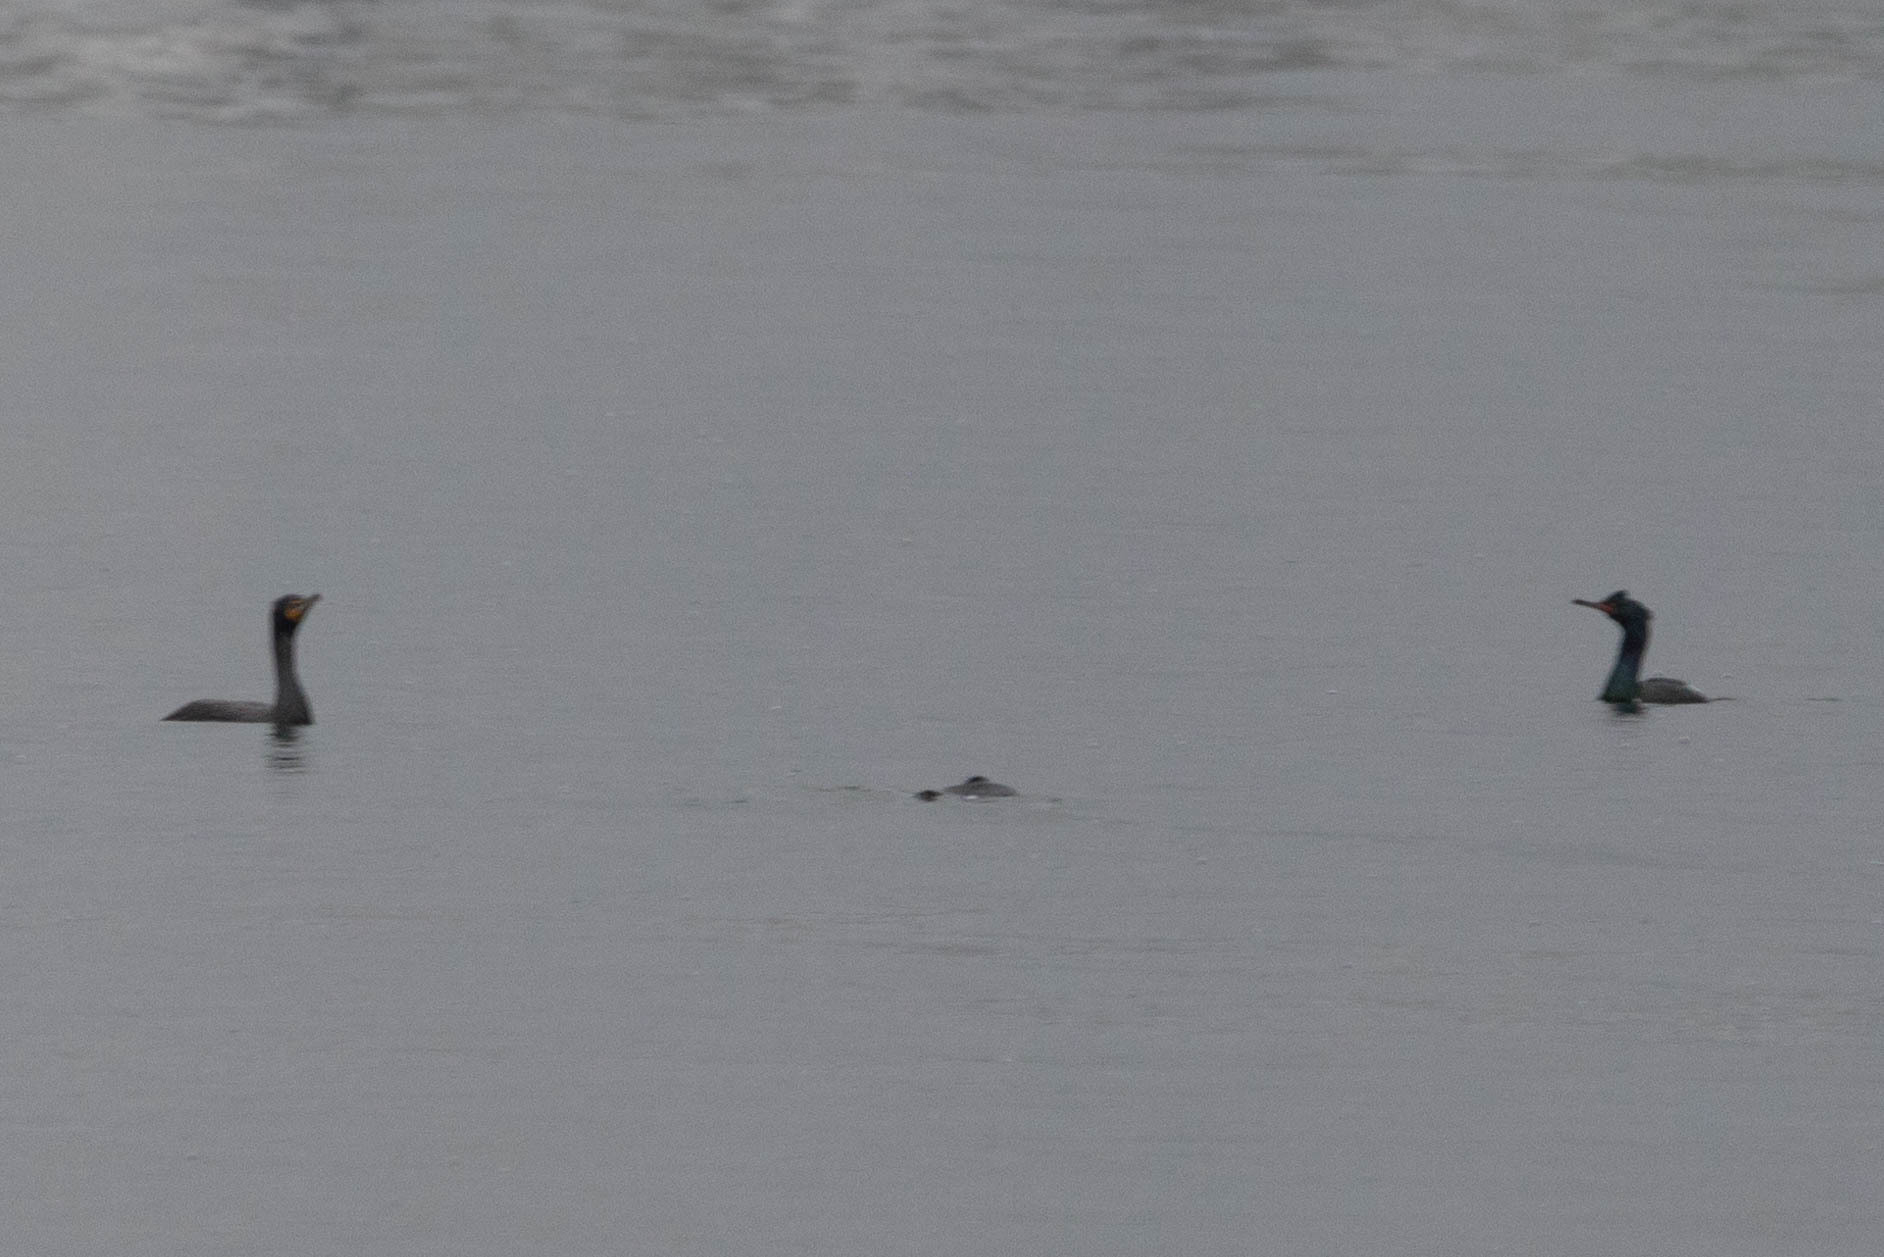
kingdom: Animalia
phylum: Chordata
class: Aves
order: Suliformes
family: Phalacrocoracidae
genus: Phalacrocorax
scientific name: Phalacrocorax pelagicus
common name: Pelagic cormorant
